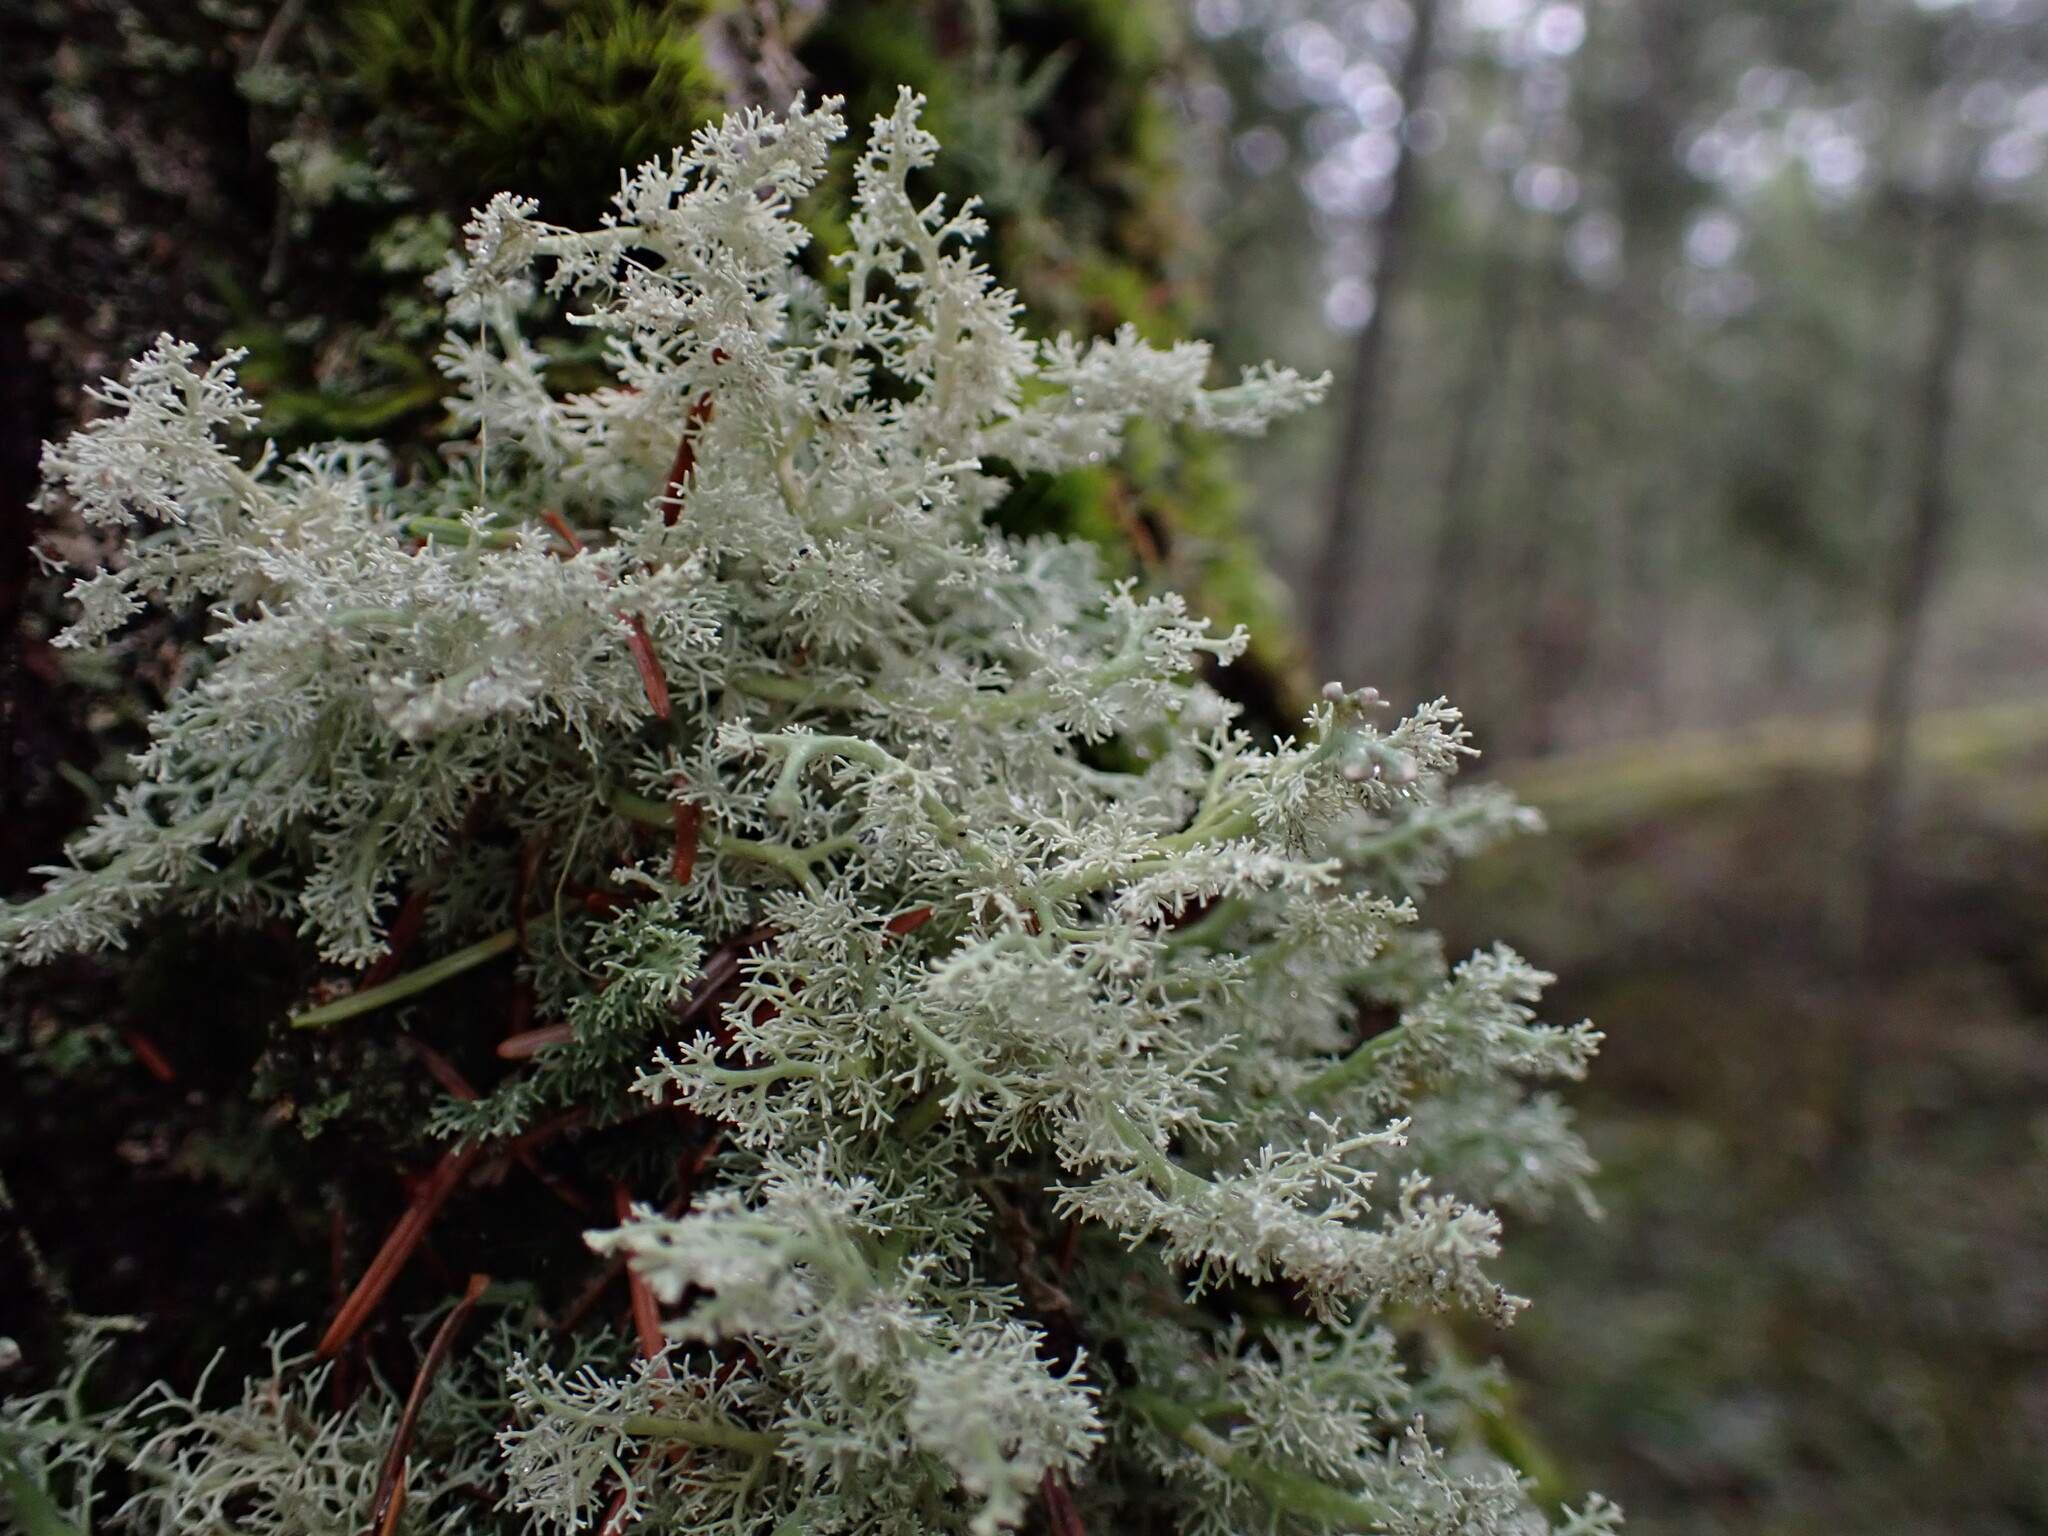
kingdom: Fungi
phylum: Ascomycota
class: Lecanoromycetes
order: Lecanorales
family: Sphaerophoraceae
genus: Sphaerophorus
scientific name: Sphaerophorus globosus
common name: Globe ball lichen
